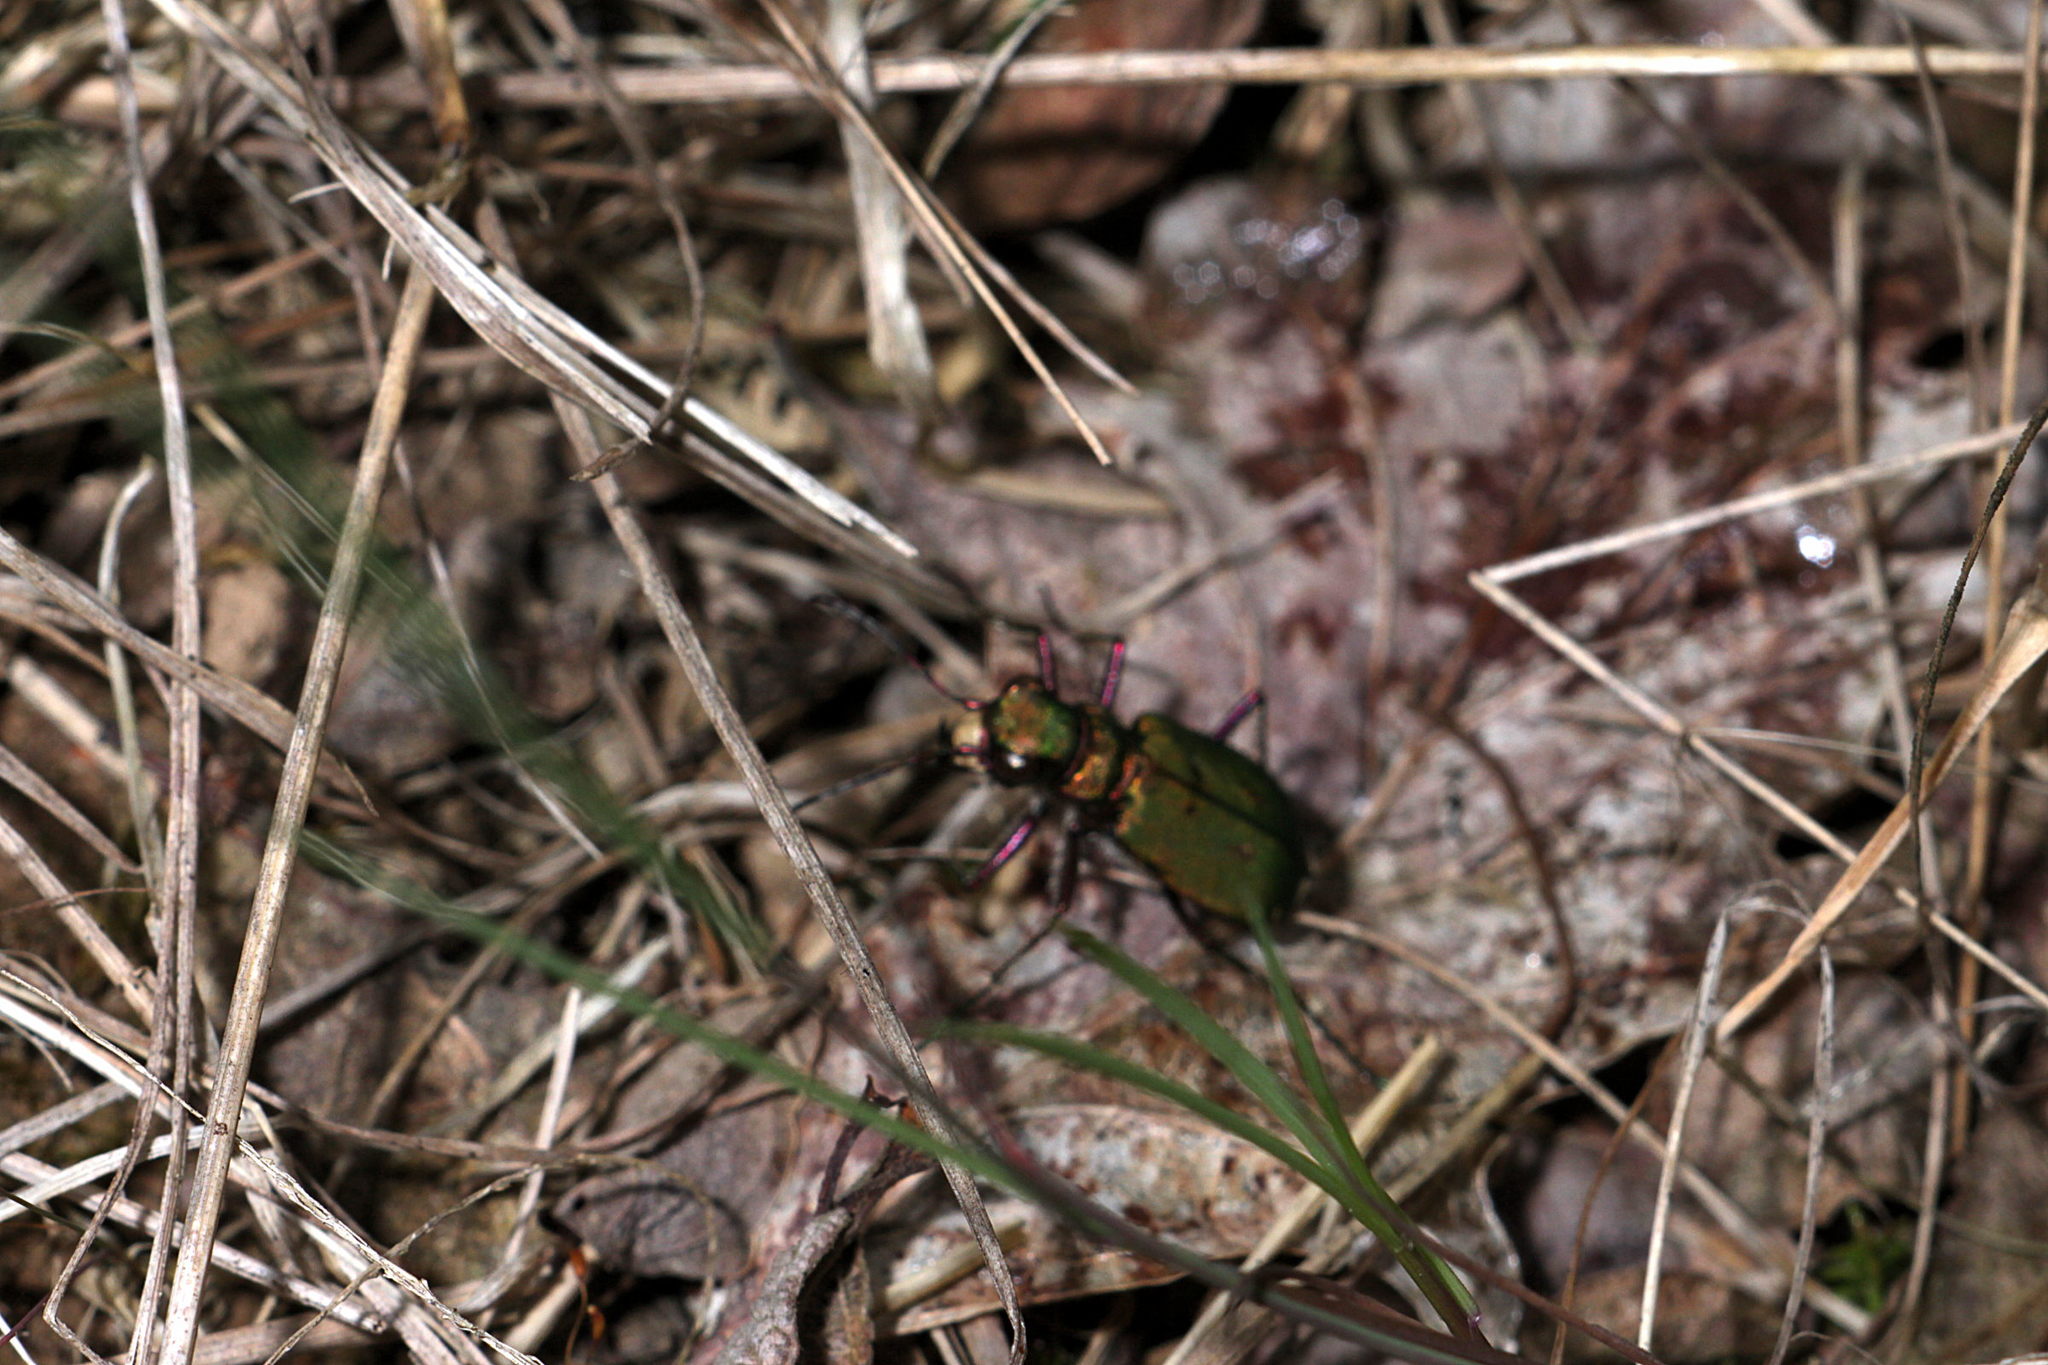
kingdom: Animalia
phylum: Arthropoda
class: Insecta
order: Coleoptera
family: Carabidae
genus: Cicindela
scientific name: Cicindela campestris
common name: Common tiger beetle
